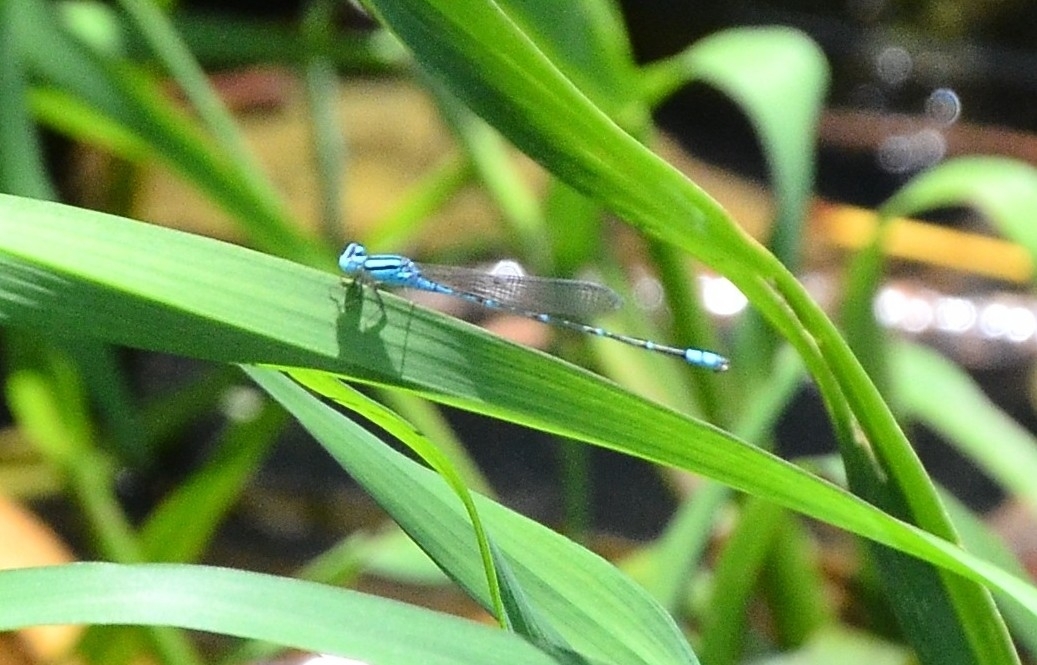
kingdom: Animalia
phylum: Arthropoda
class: Insecta
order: Odonata
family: Coenagrionidae
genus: Pseudagrion
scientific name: Pseudagrion microcephalum
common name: Blue riverdamsel
